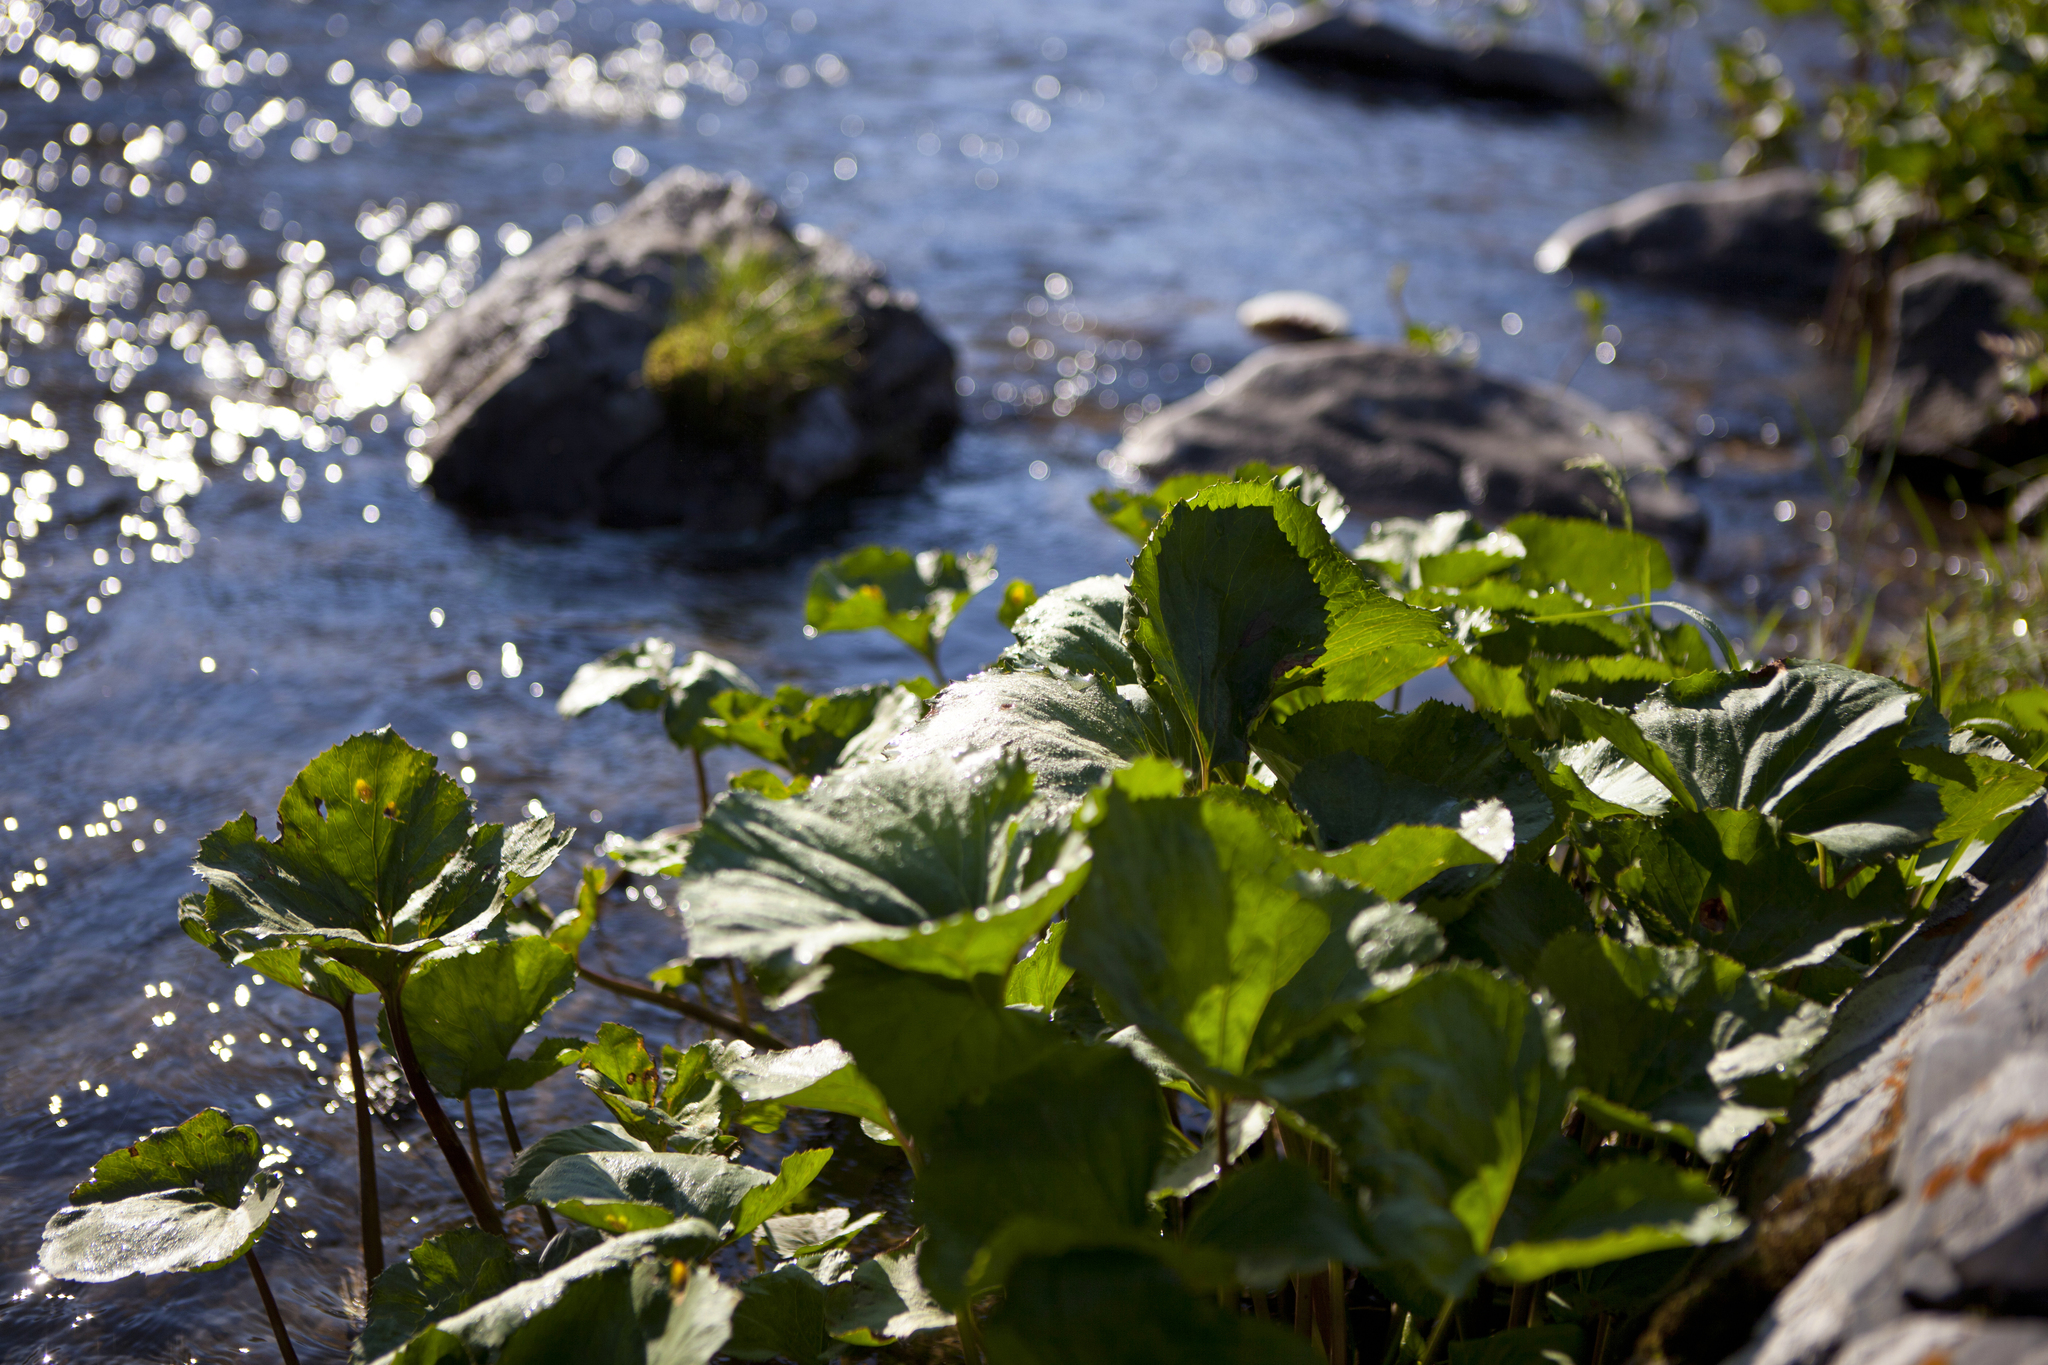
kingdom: Plantae
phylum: Tracheophyta
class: Magnoliopsida
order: Asterales
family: Asteraceae
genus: Petasites
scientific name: Petasites radiatus
